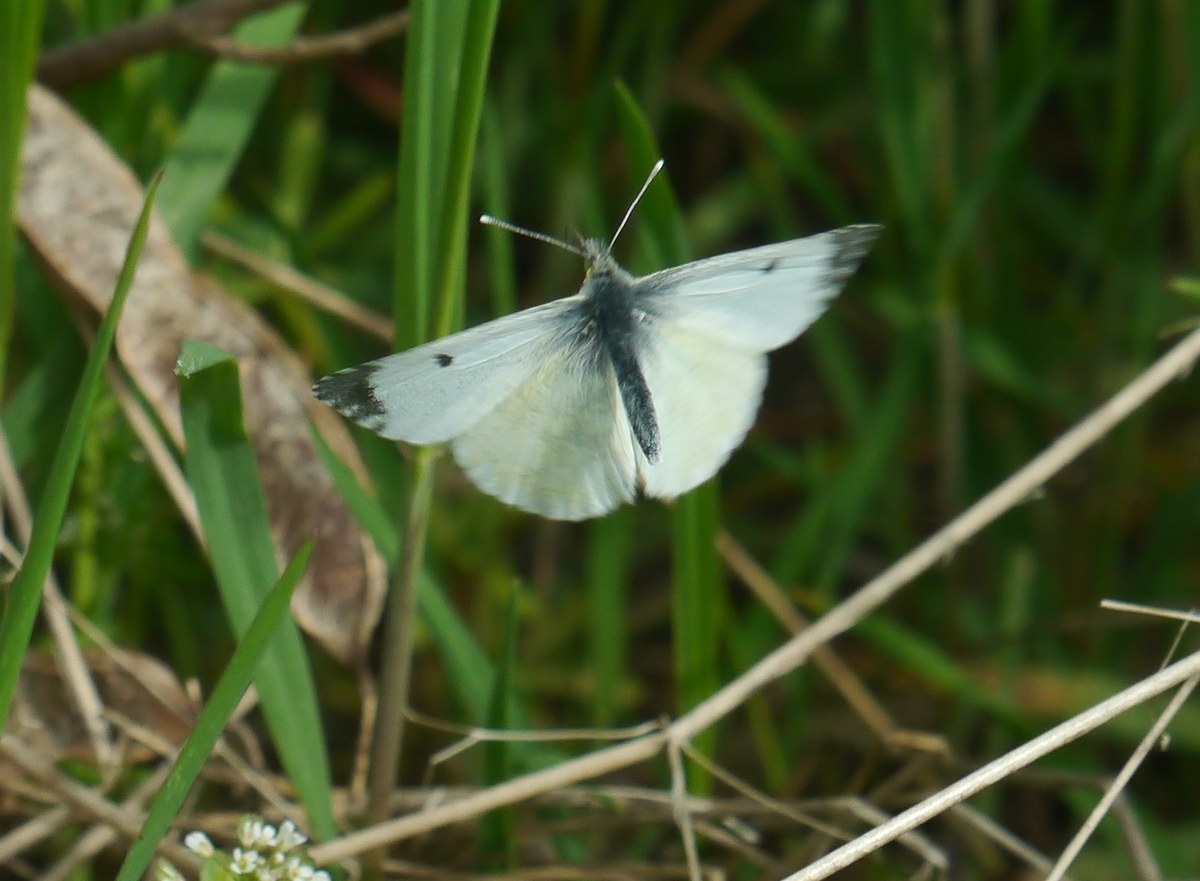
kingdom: Animalia
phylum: Arthropoda
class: Insecta
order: Lepidoptera
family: Pieridae
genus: Anthocharis
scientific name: Anthocharis cardamines
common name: Orange-tip
